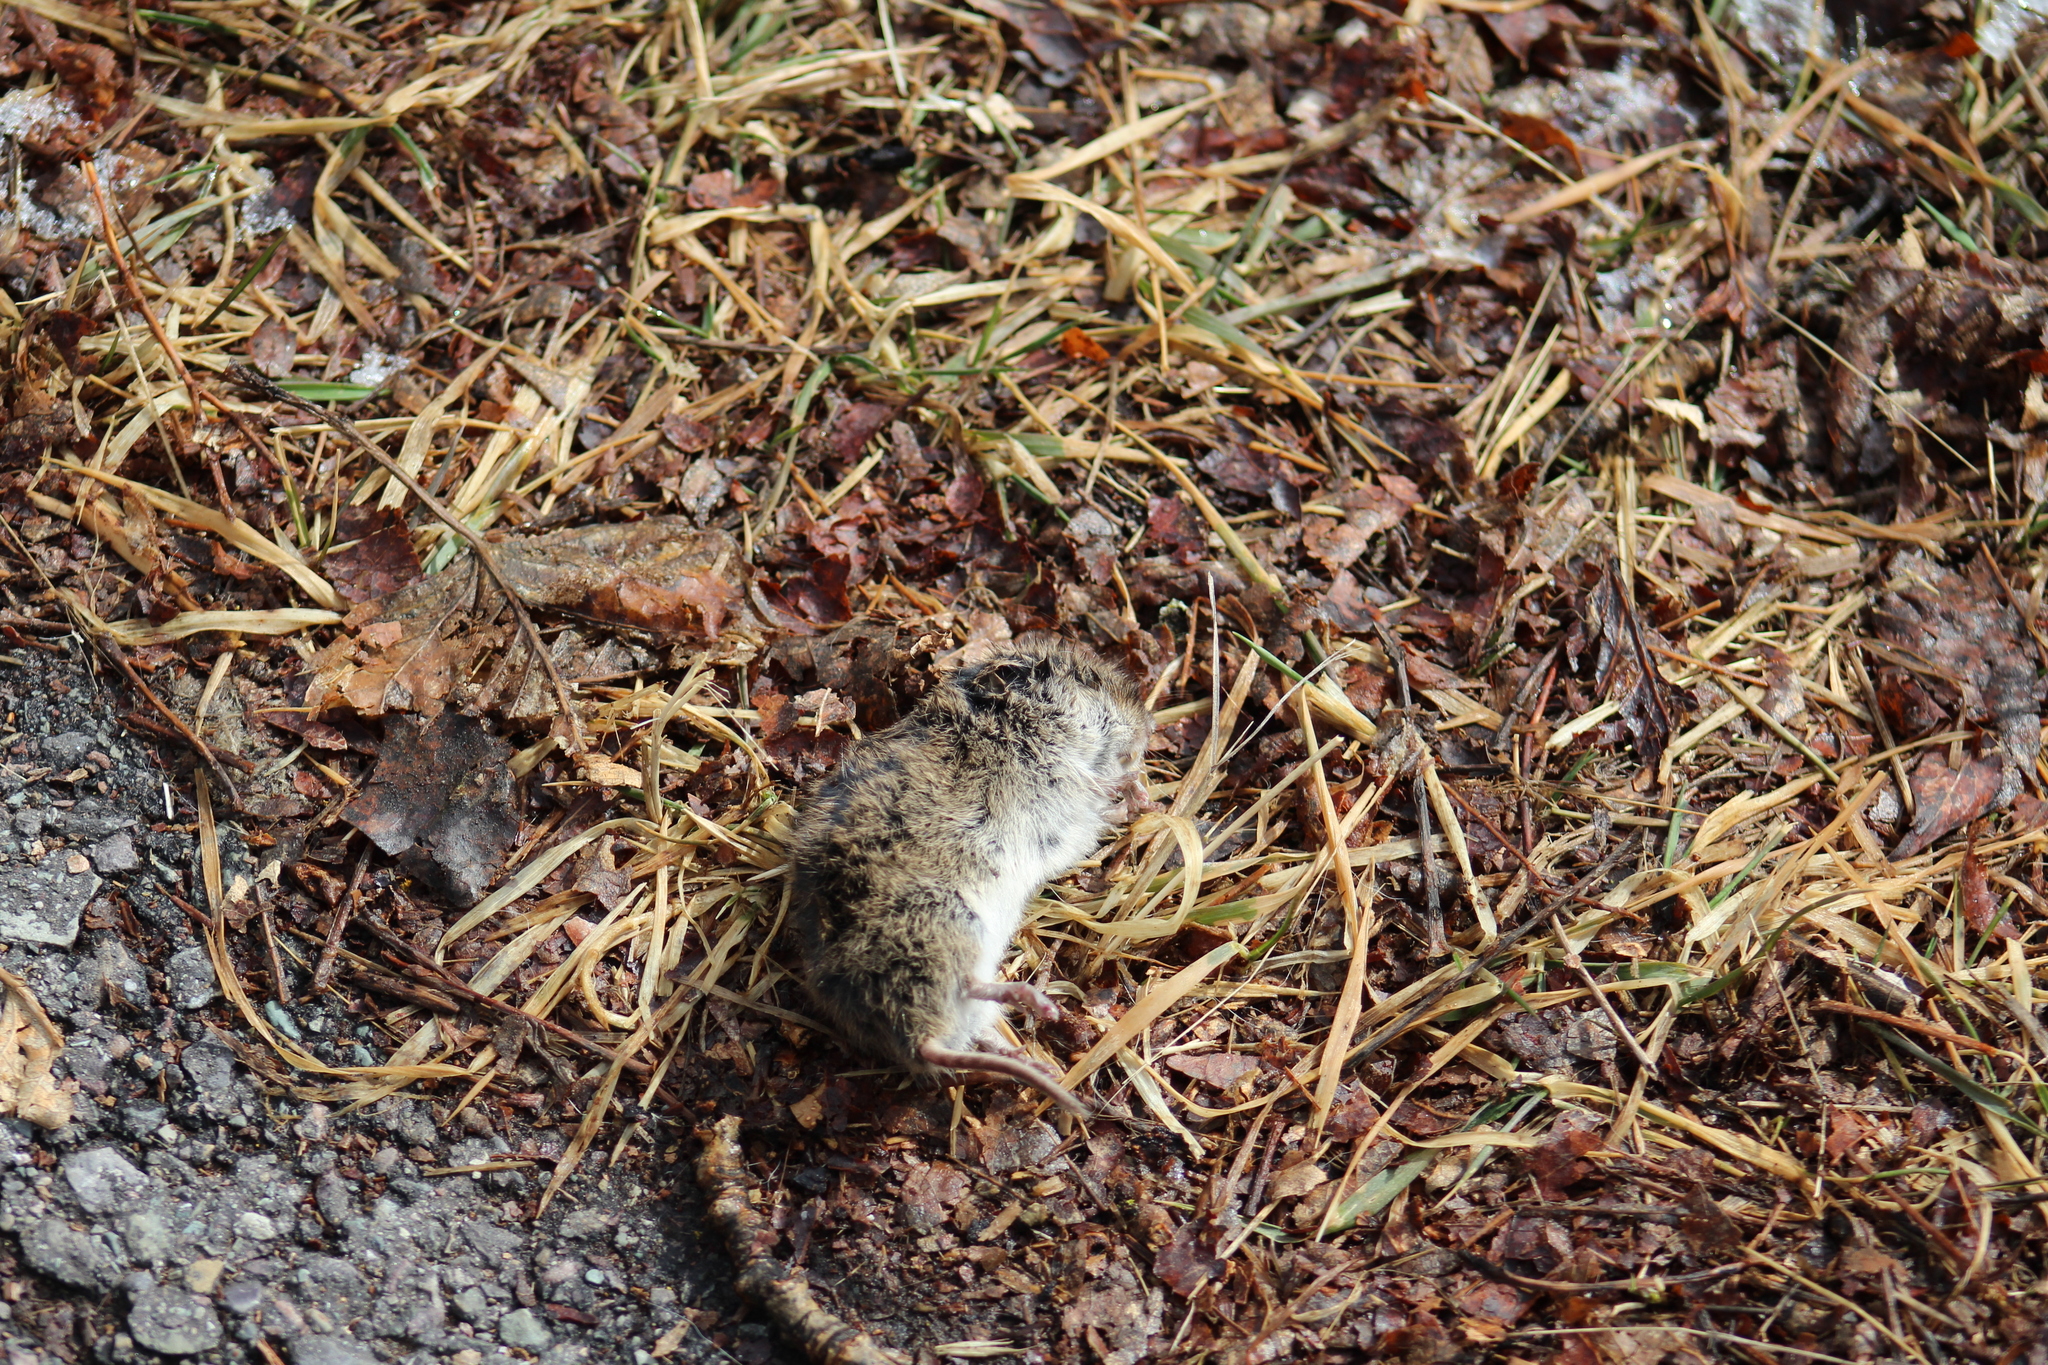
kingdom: Animalia
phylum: Chordata
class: Mammalia
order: Rodentia
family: Cricetidae
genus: Microtus
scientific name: Microtus pennsylvanicus
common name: Meadow vole
